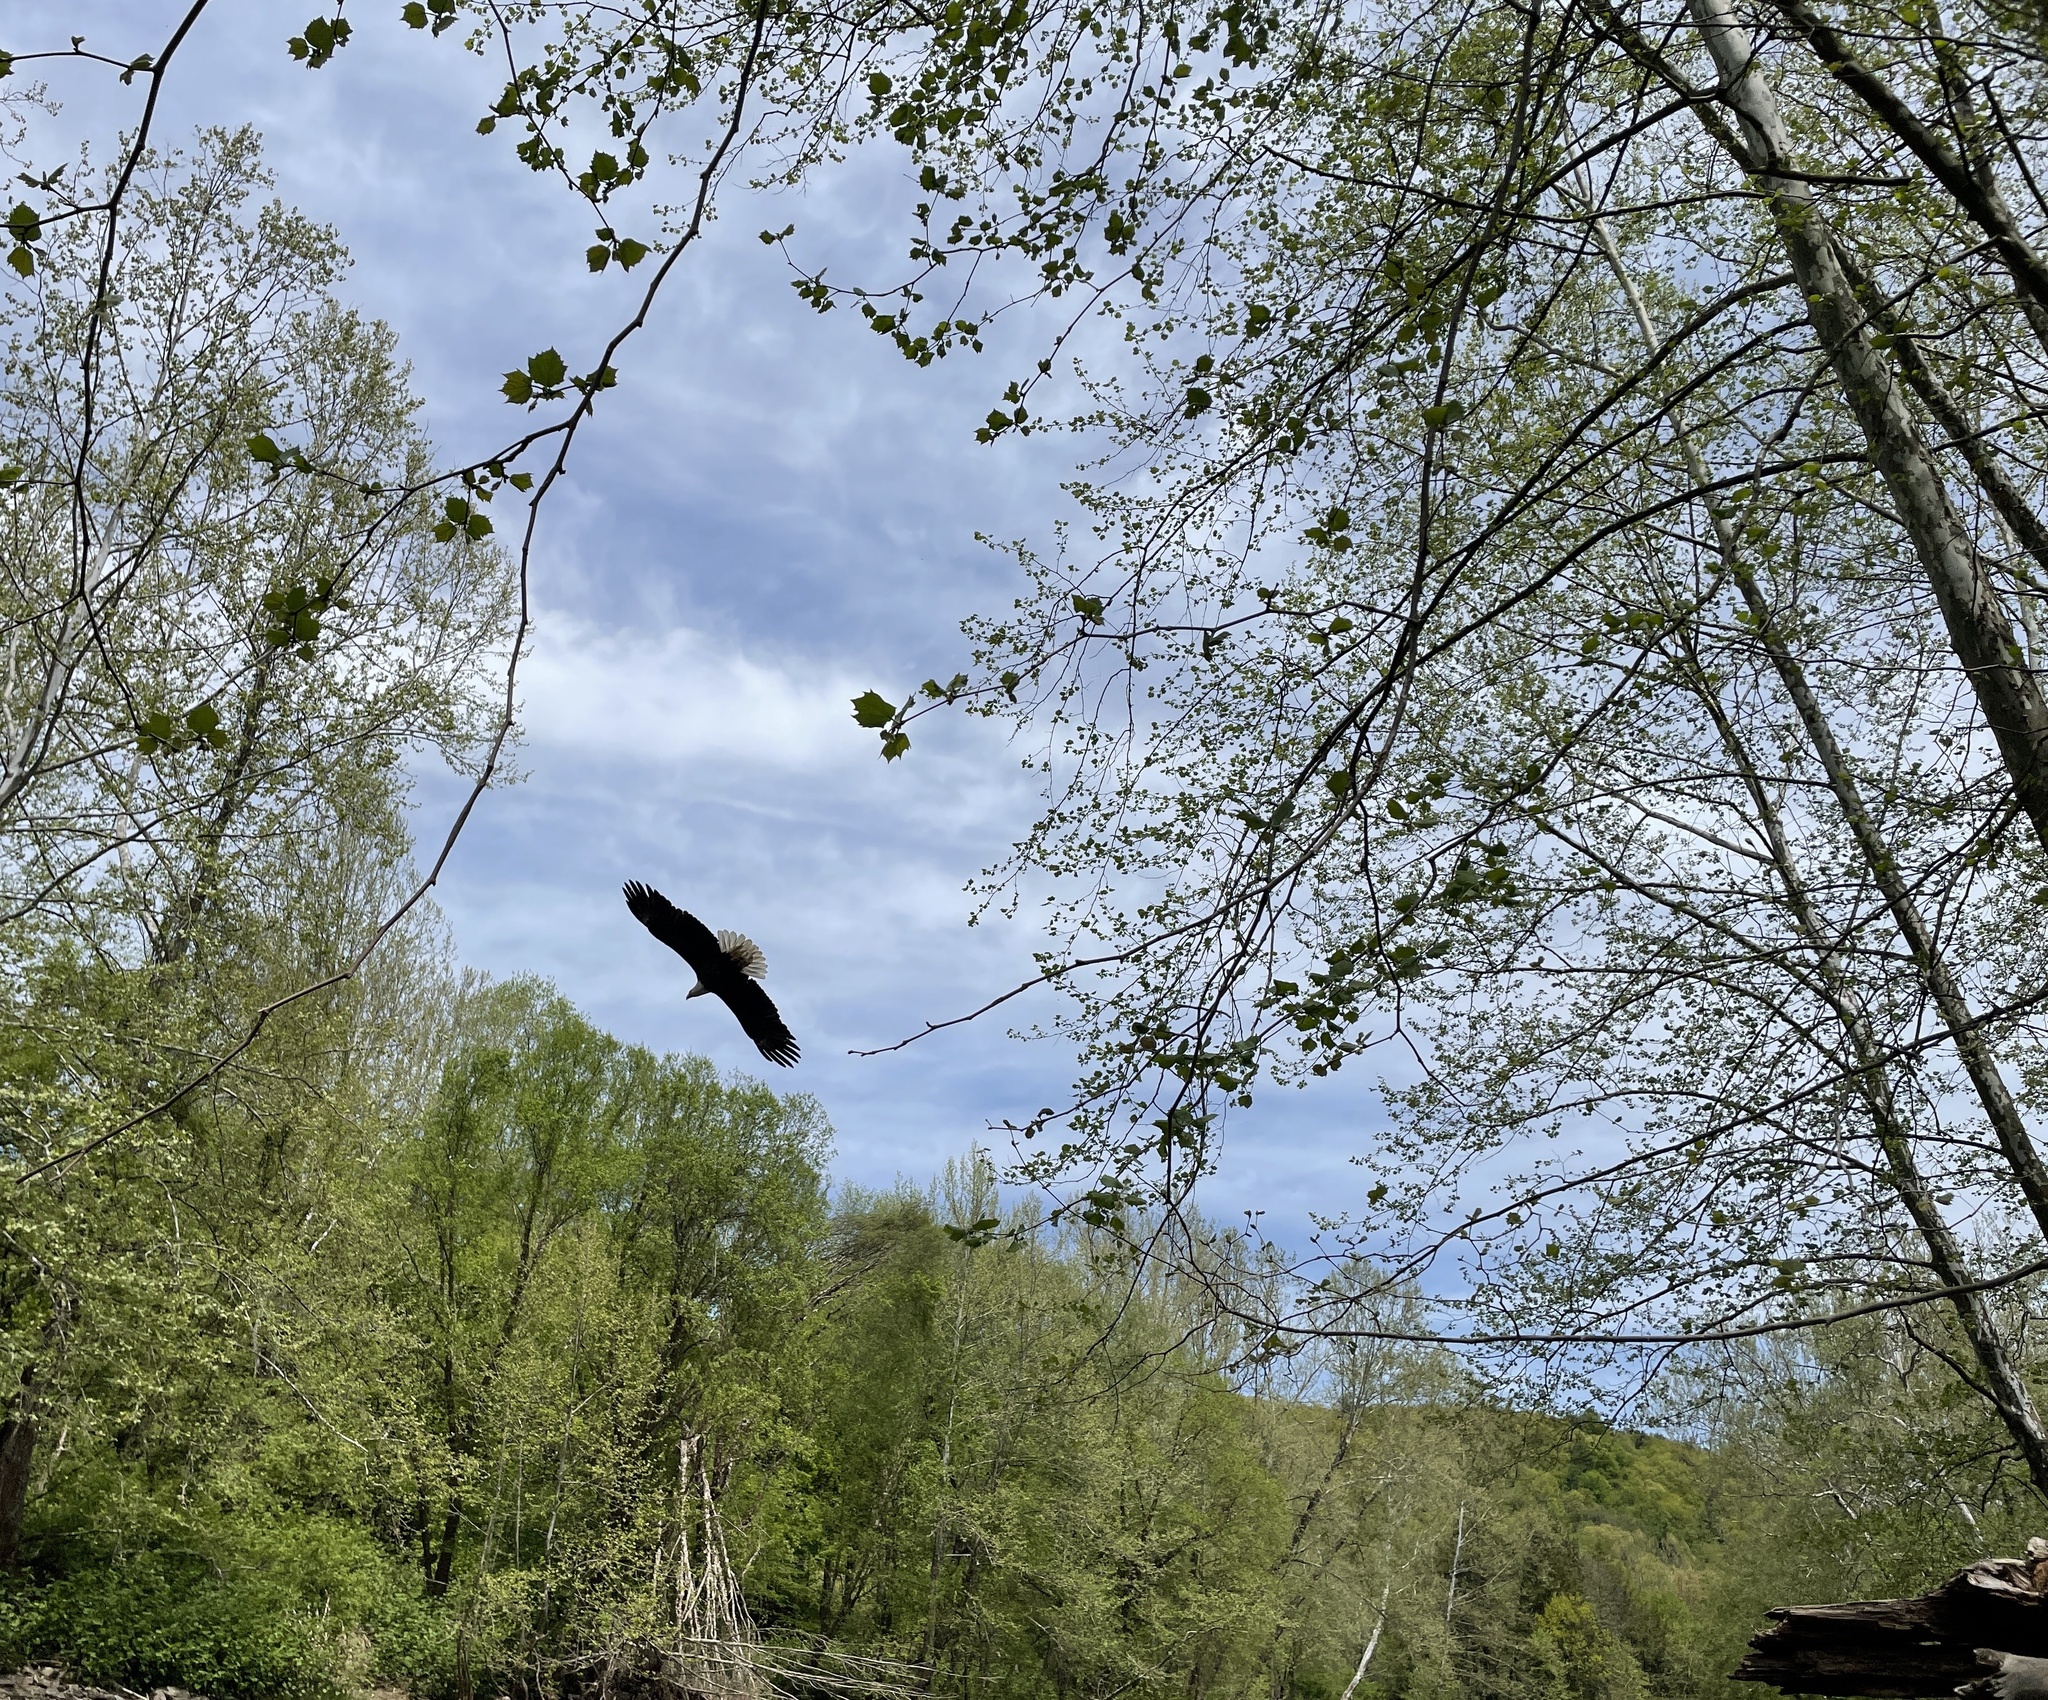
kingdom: Animalia
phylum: Chordata
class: Aves
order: Accipitriformes
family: Accipitridae
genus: Haliaeetus
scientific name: Haliaeetus leucocephalus
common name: Bald eagle
